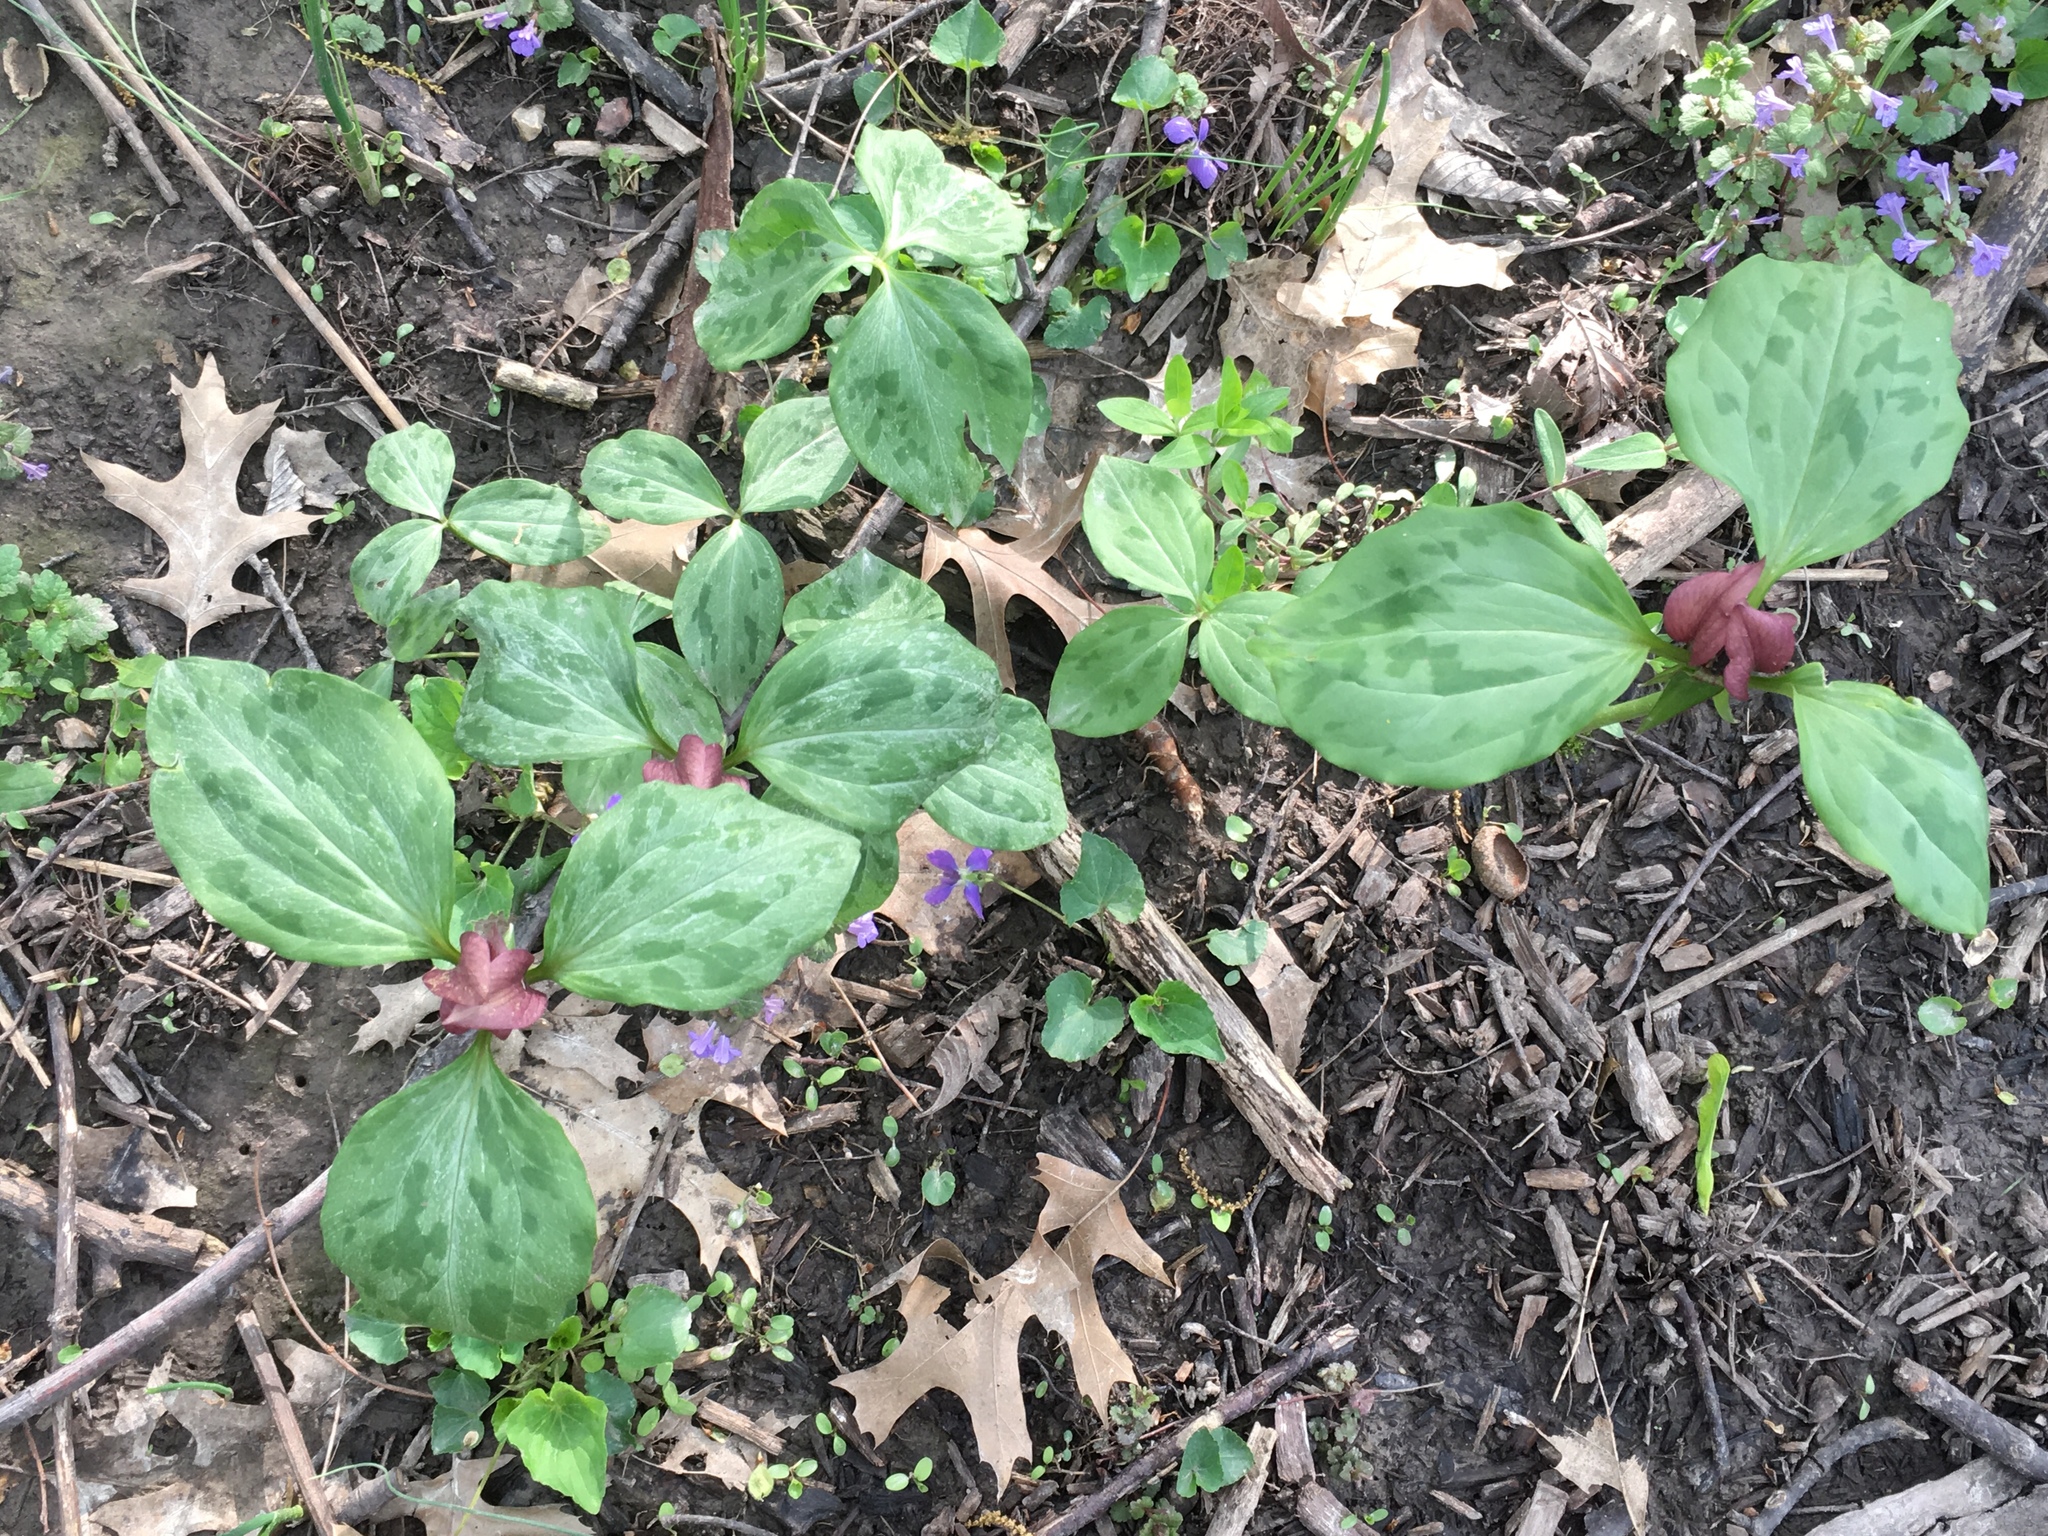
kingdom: Plantae
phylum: Tracheophyta
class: Liliopsida
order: Liliales
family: Melanthiaceae
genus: Trillium
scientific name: Trillium recurvatum
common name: Bloody butcher
